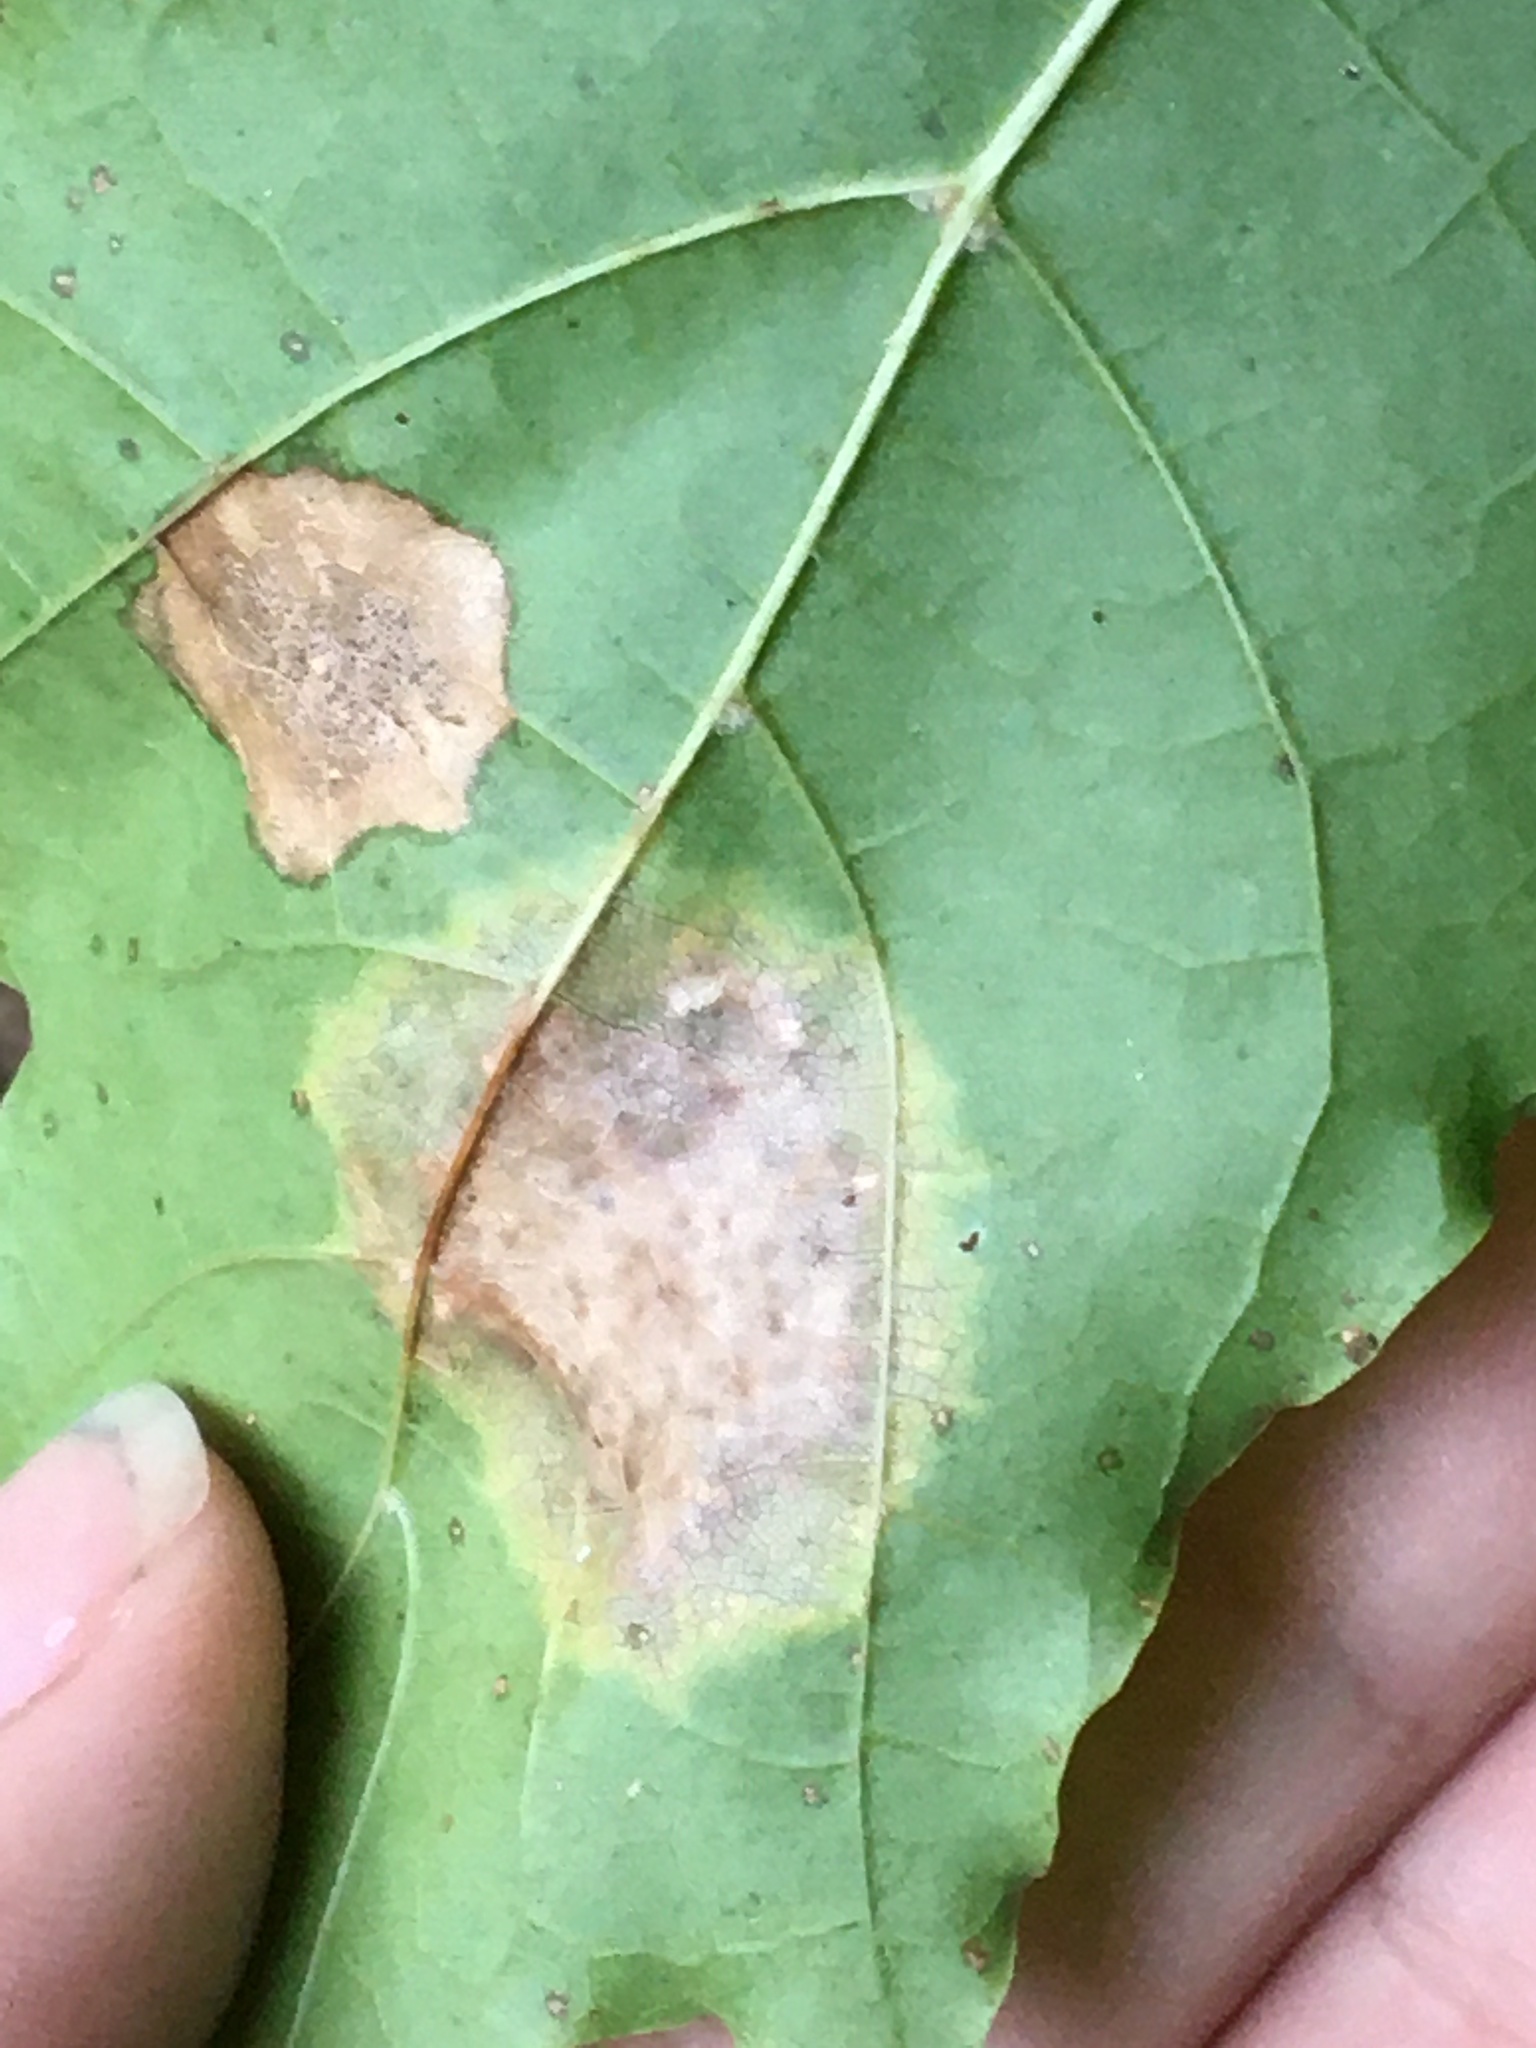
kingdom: Fungi
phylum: Ascomycota
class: Leotiomycetes
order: Rhytismatales
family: Rhytismataceae
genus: Rhytisma
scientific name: Rhytisma acerinum
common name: European tar spot
